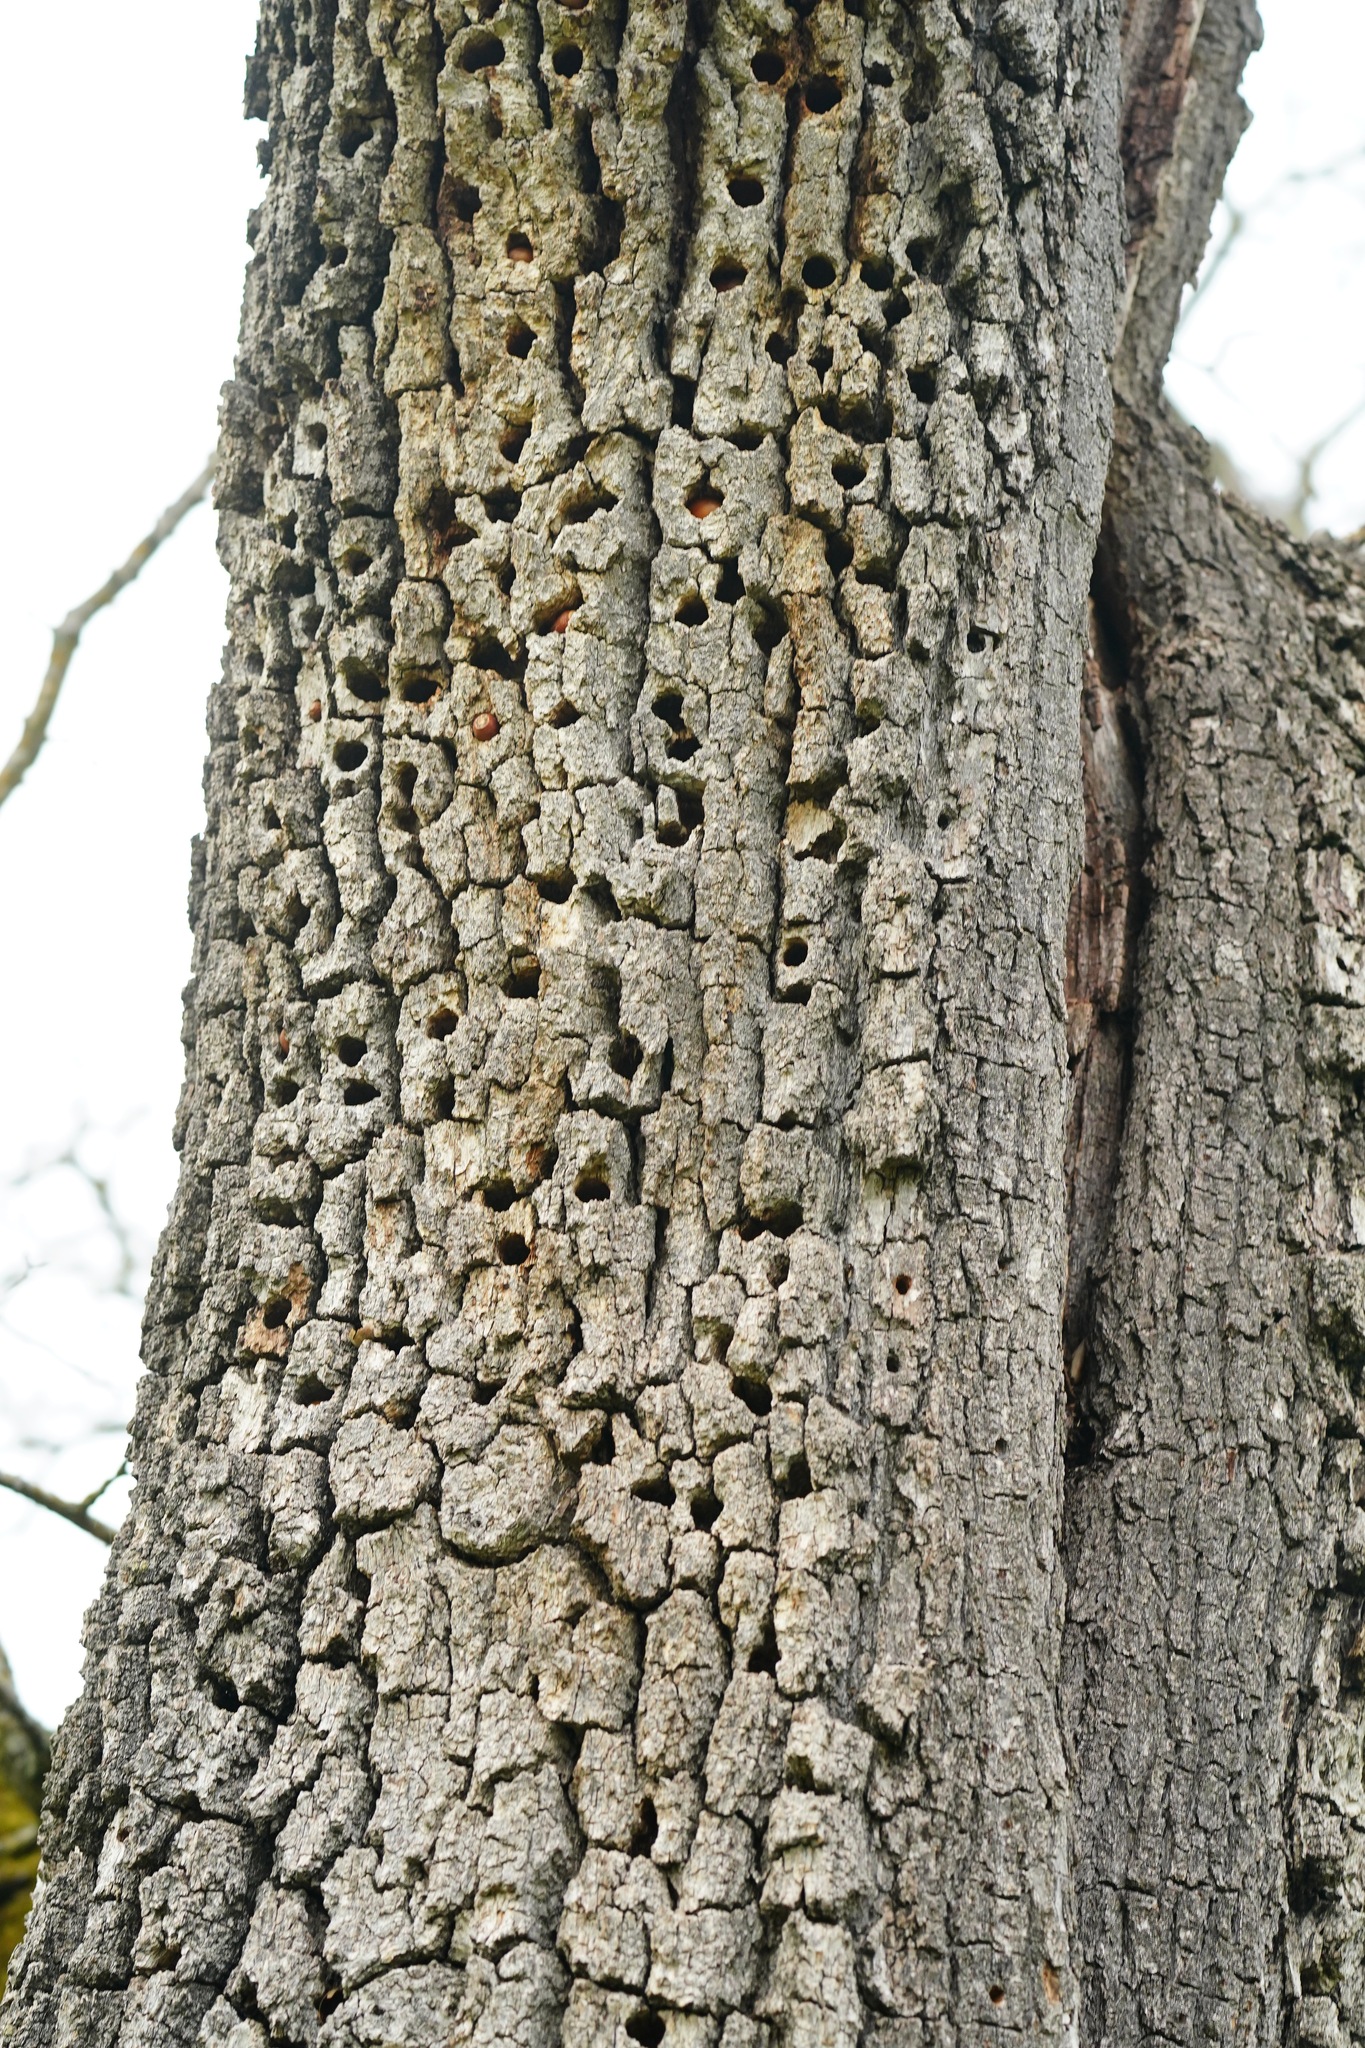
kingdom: Animalia
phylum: Chordata
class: Aves
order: Piciformes
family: Picidae
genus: Melanerpes
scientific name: Melanerpes formicivorus
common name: Acorn woodpecker
